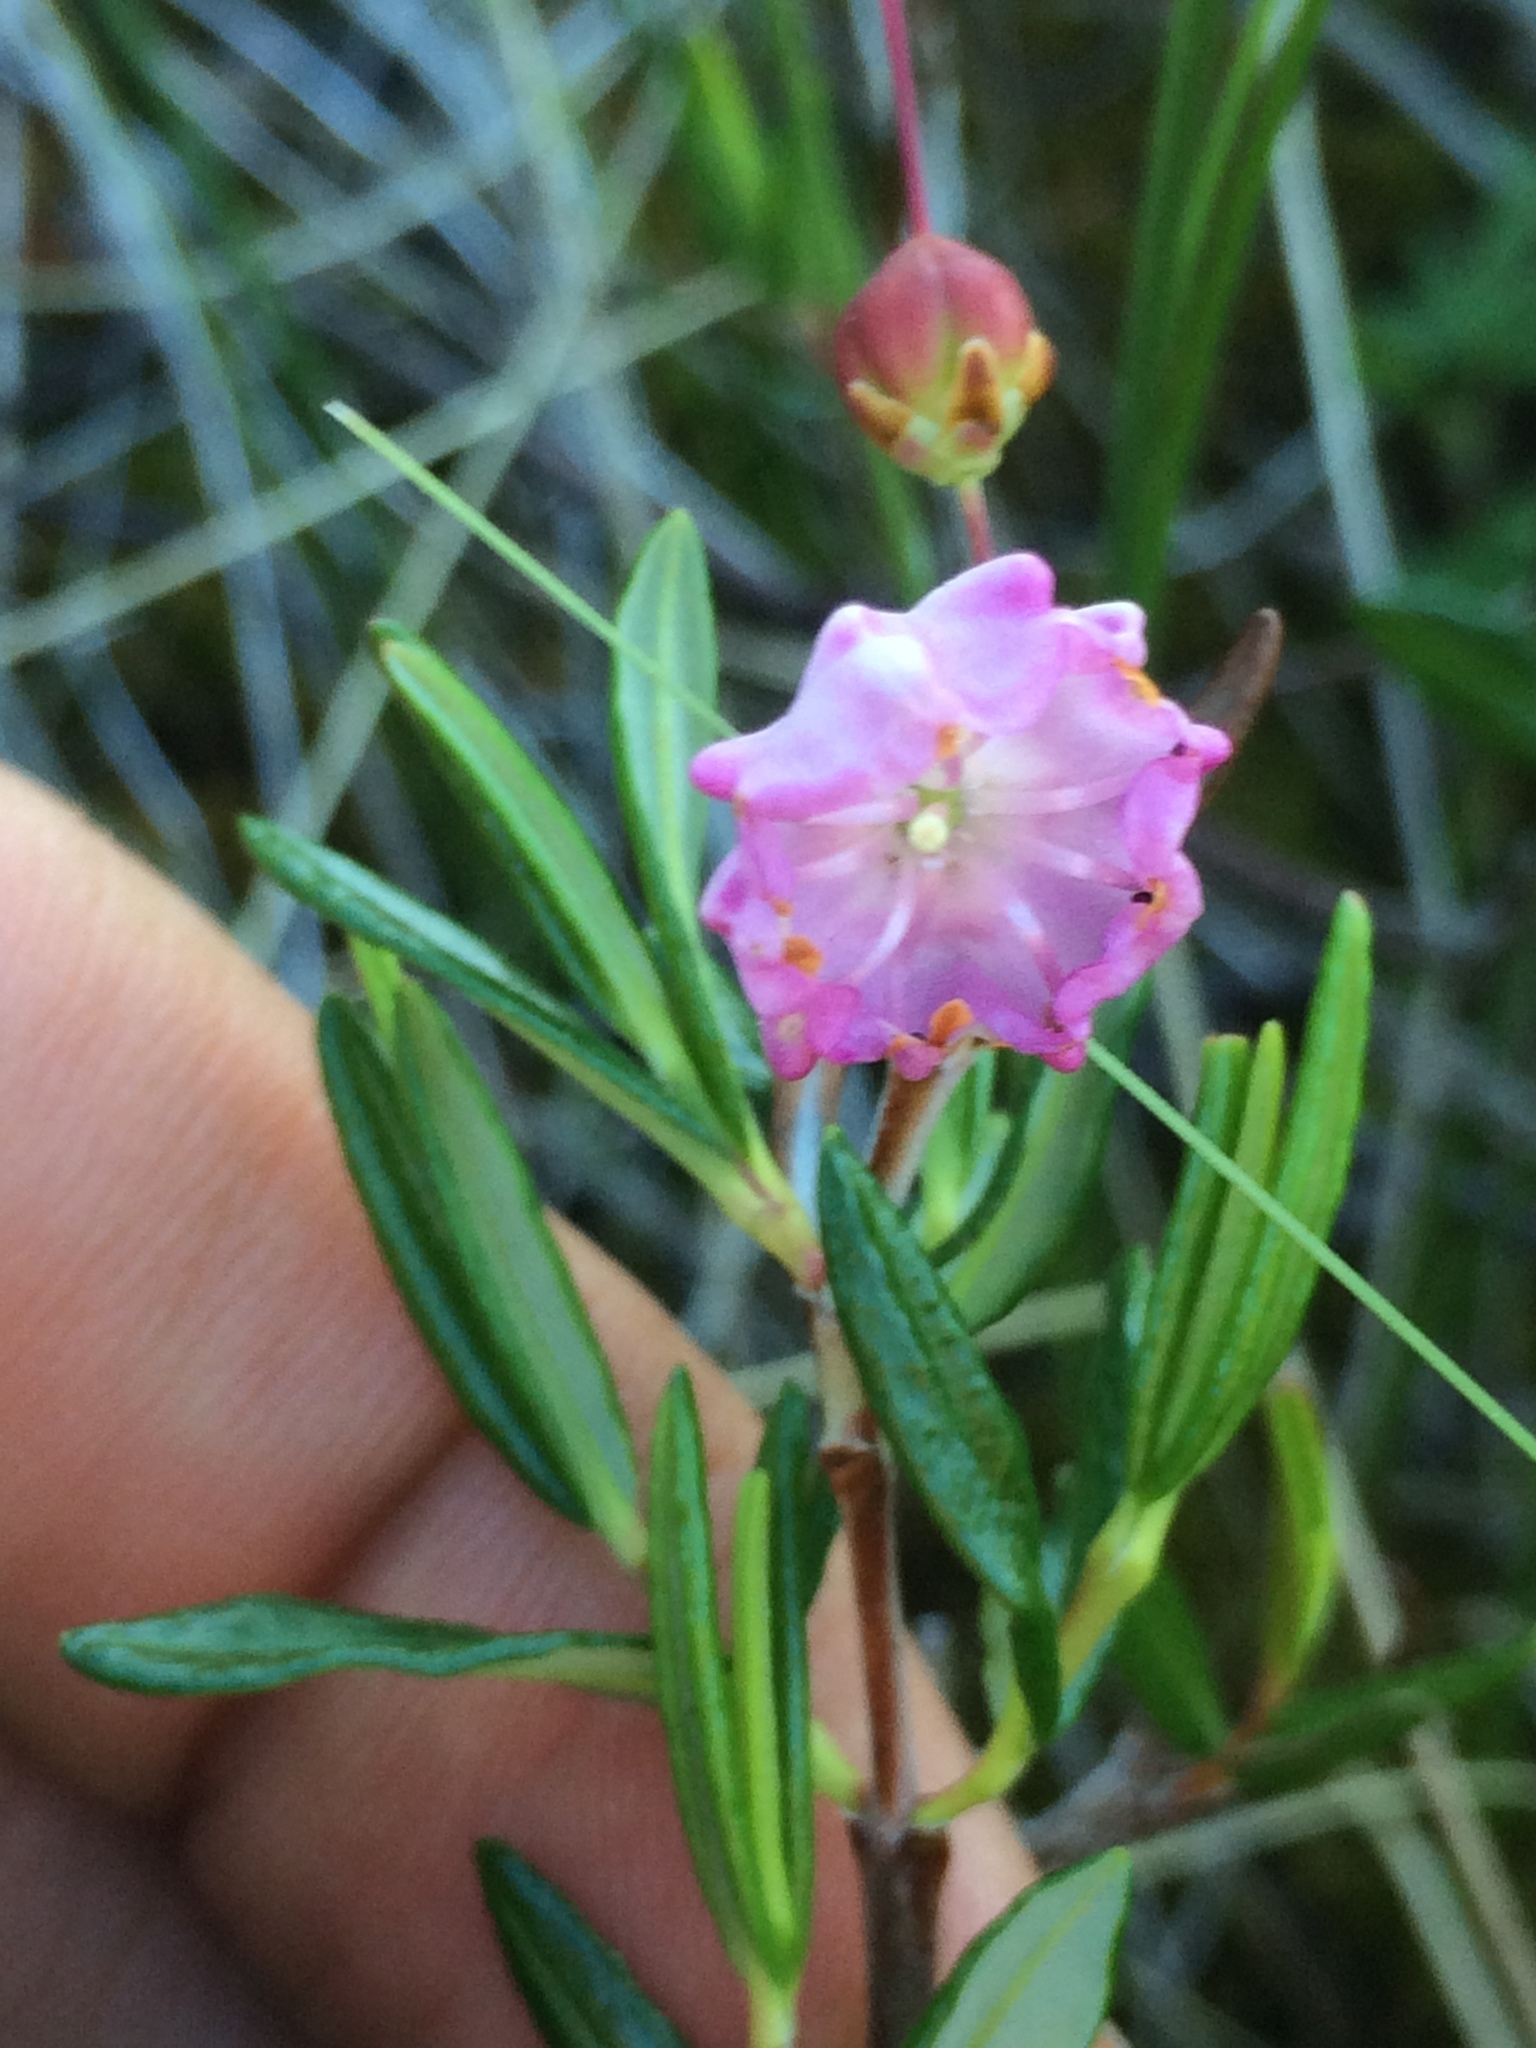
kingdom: Plantae
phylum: Tracheophyta
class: Magnoliopsida
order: Ericales
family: Ericaceae
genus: Kalmia
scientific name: Kalmia polifolia
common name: Bog-laurel
